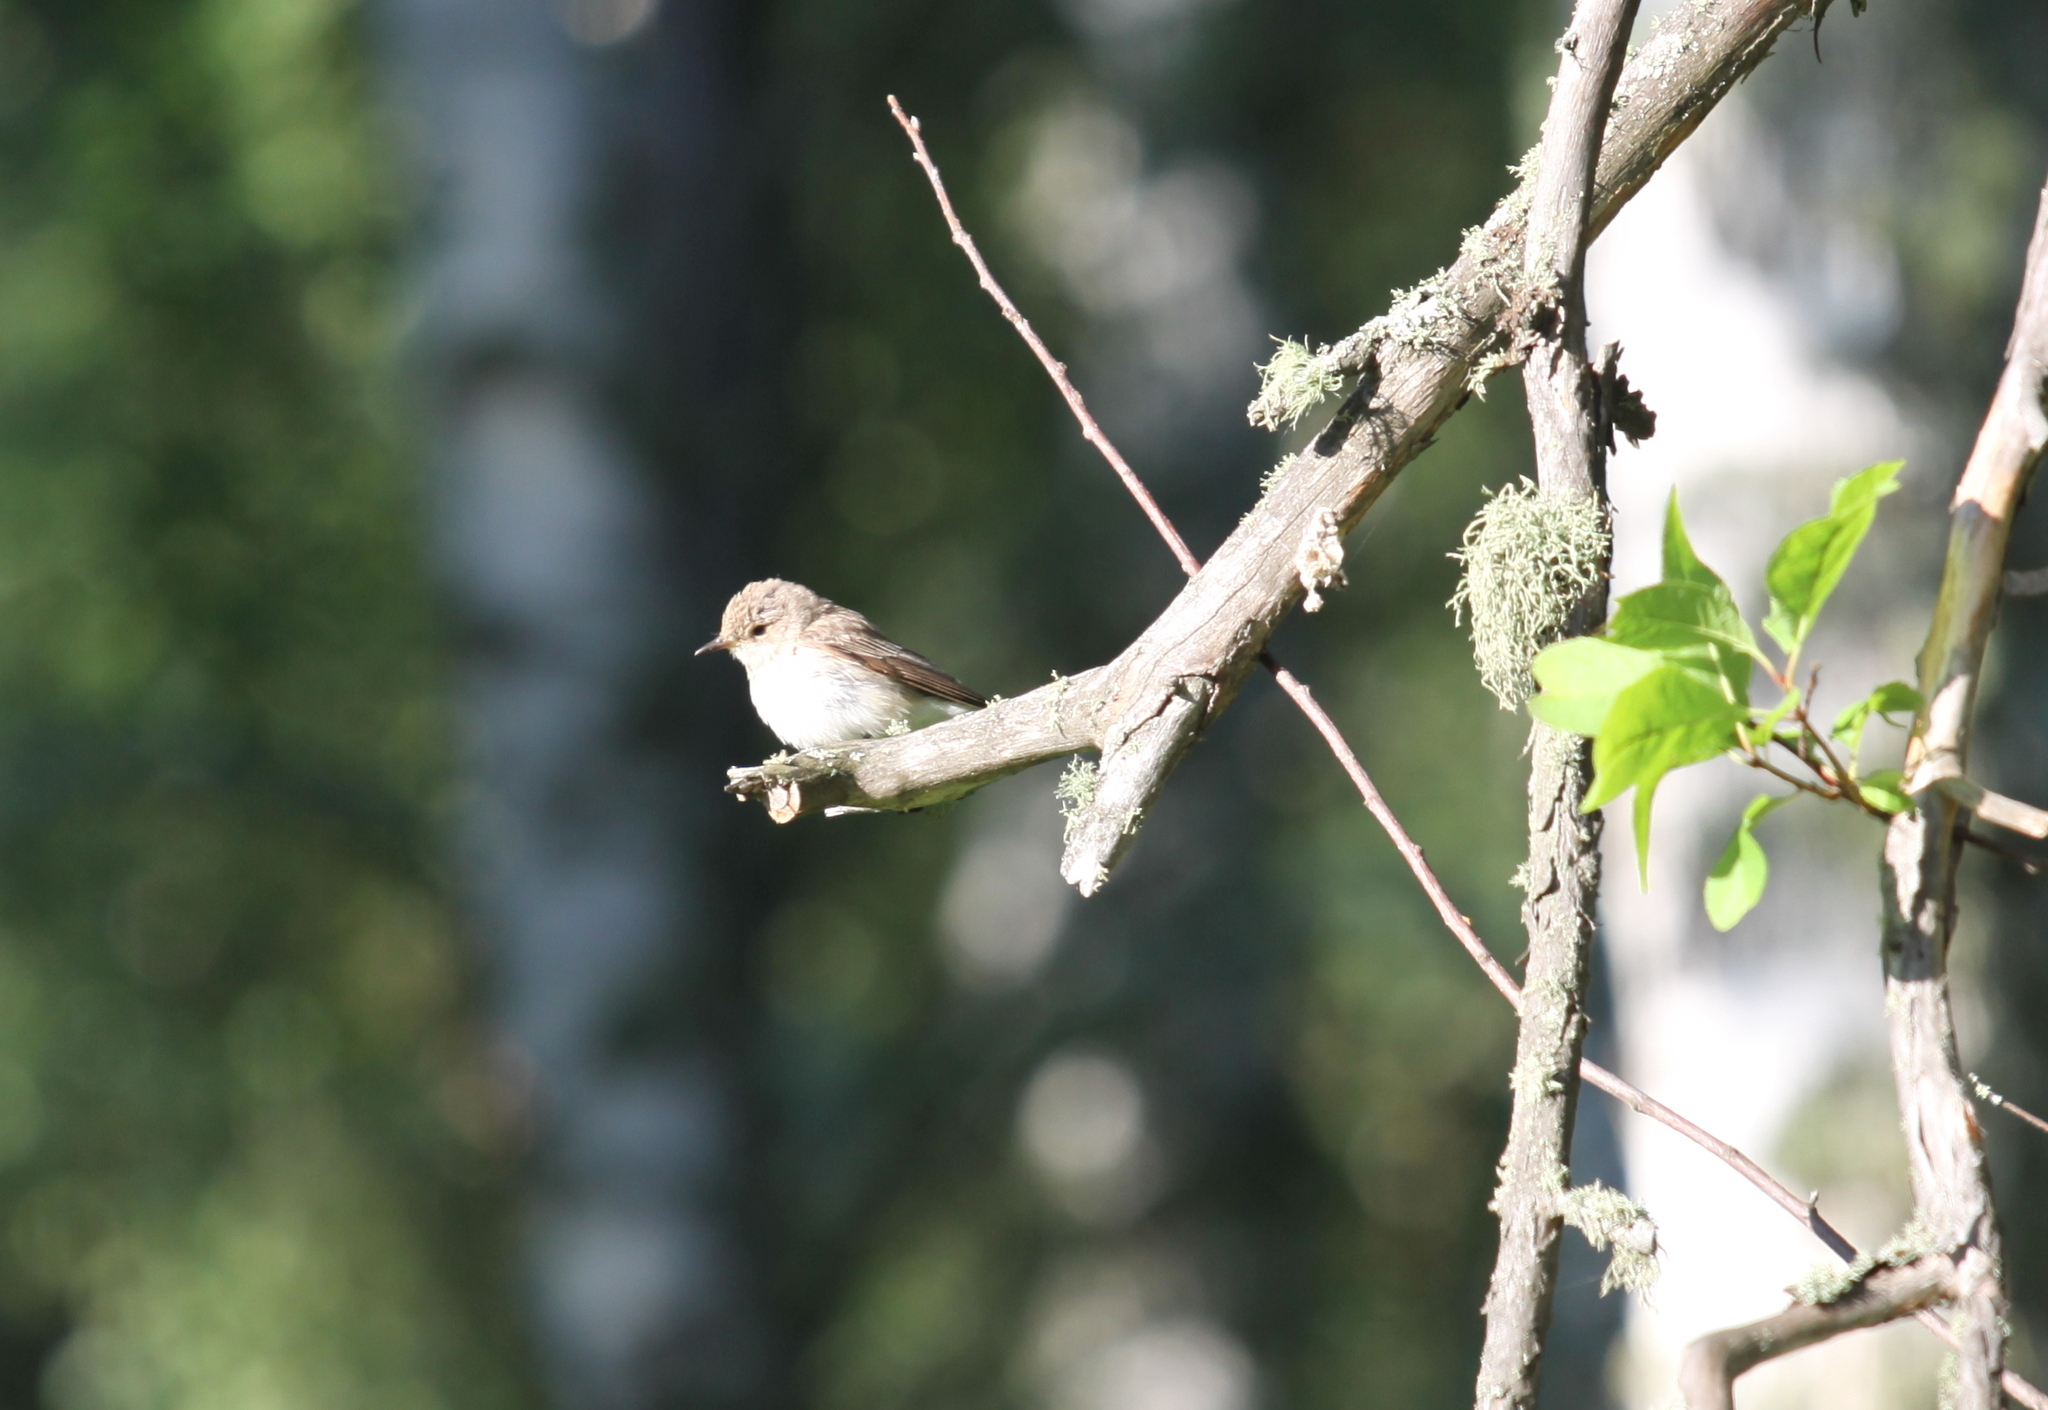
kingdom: Animalia
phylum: Chordata
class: Aves
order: Passeriformes
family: Muscicapidae
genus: Muscicapa
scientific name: Muscicapa striata
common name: Spotted flycatcher
